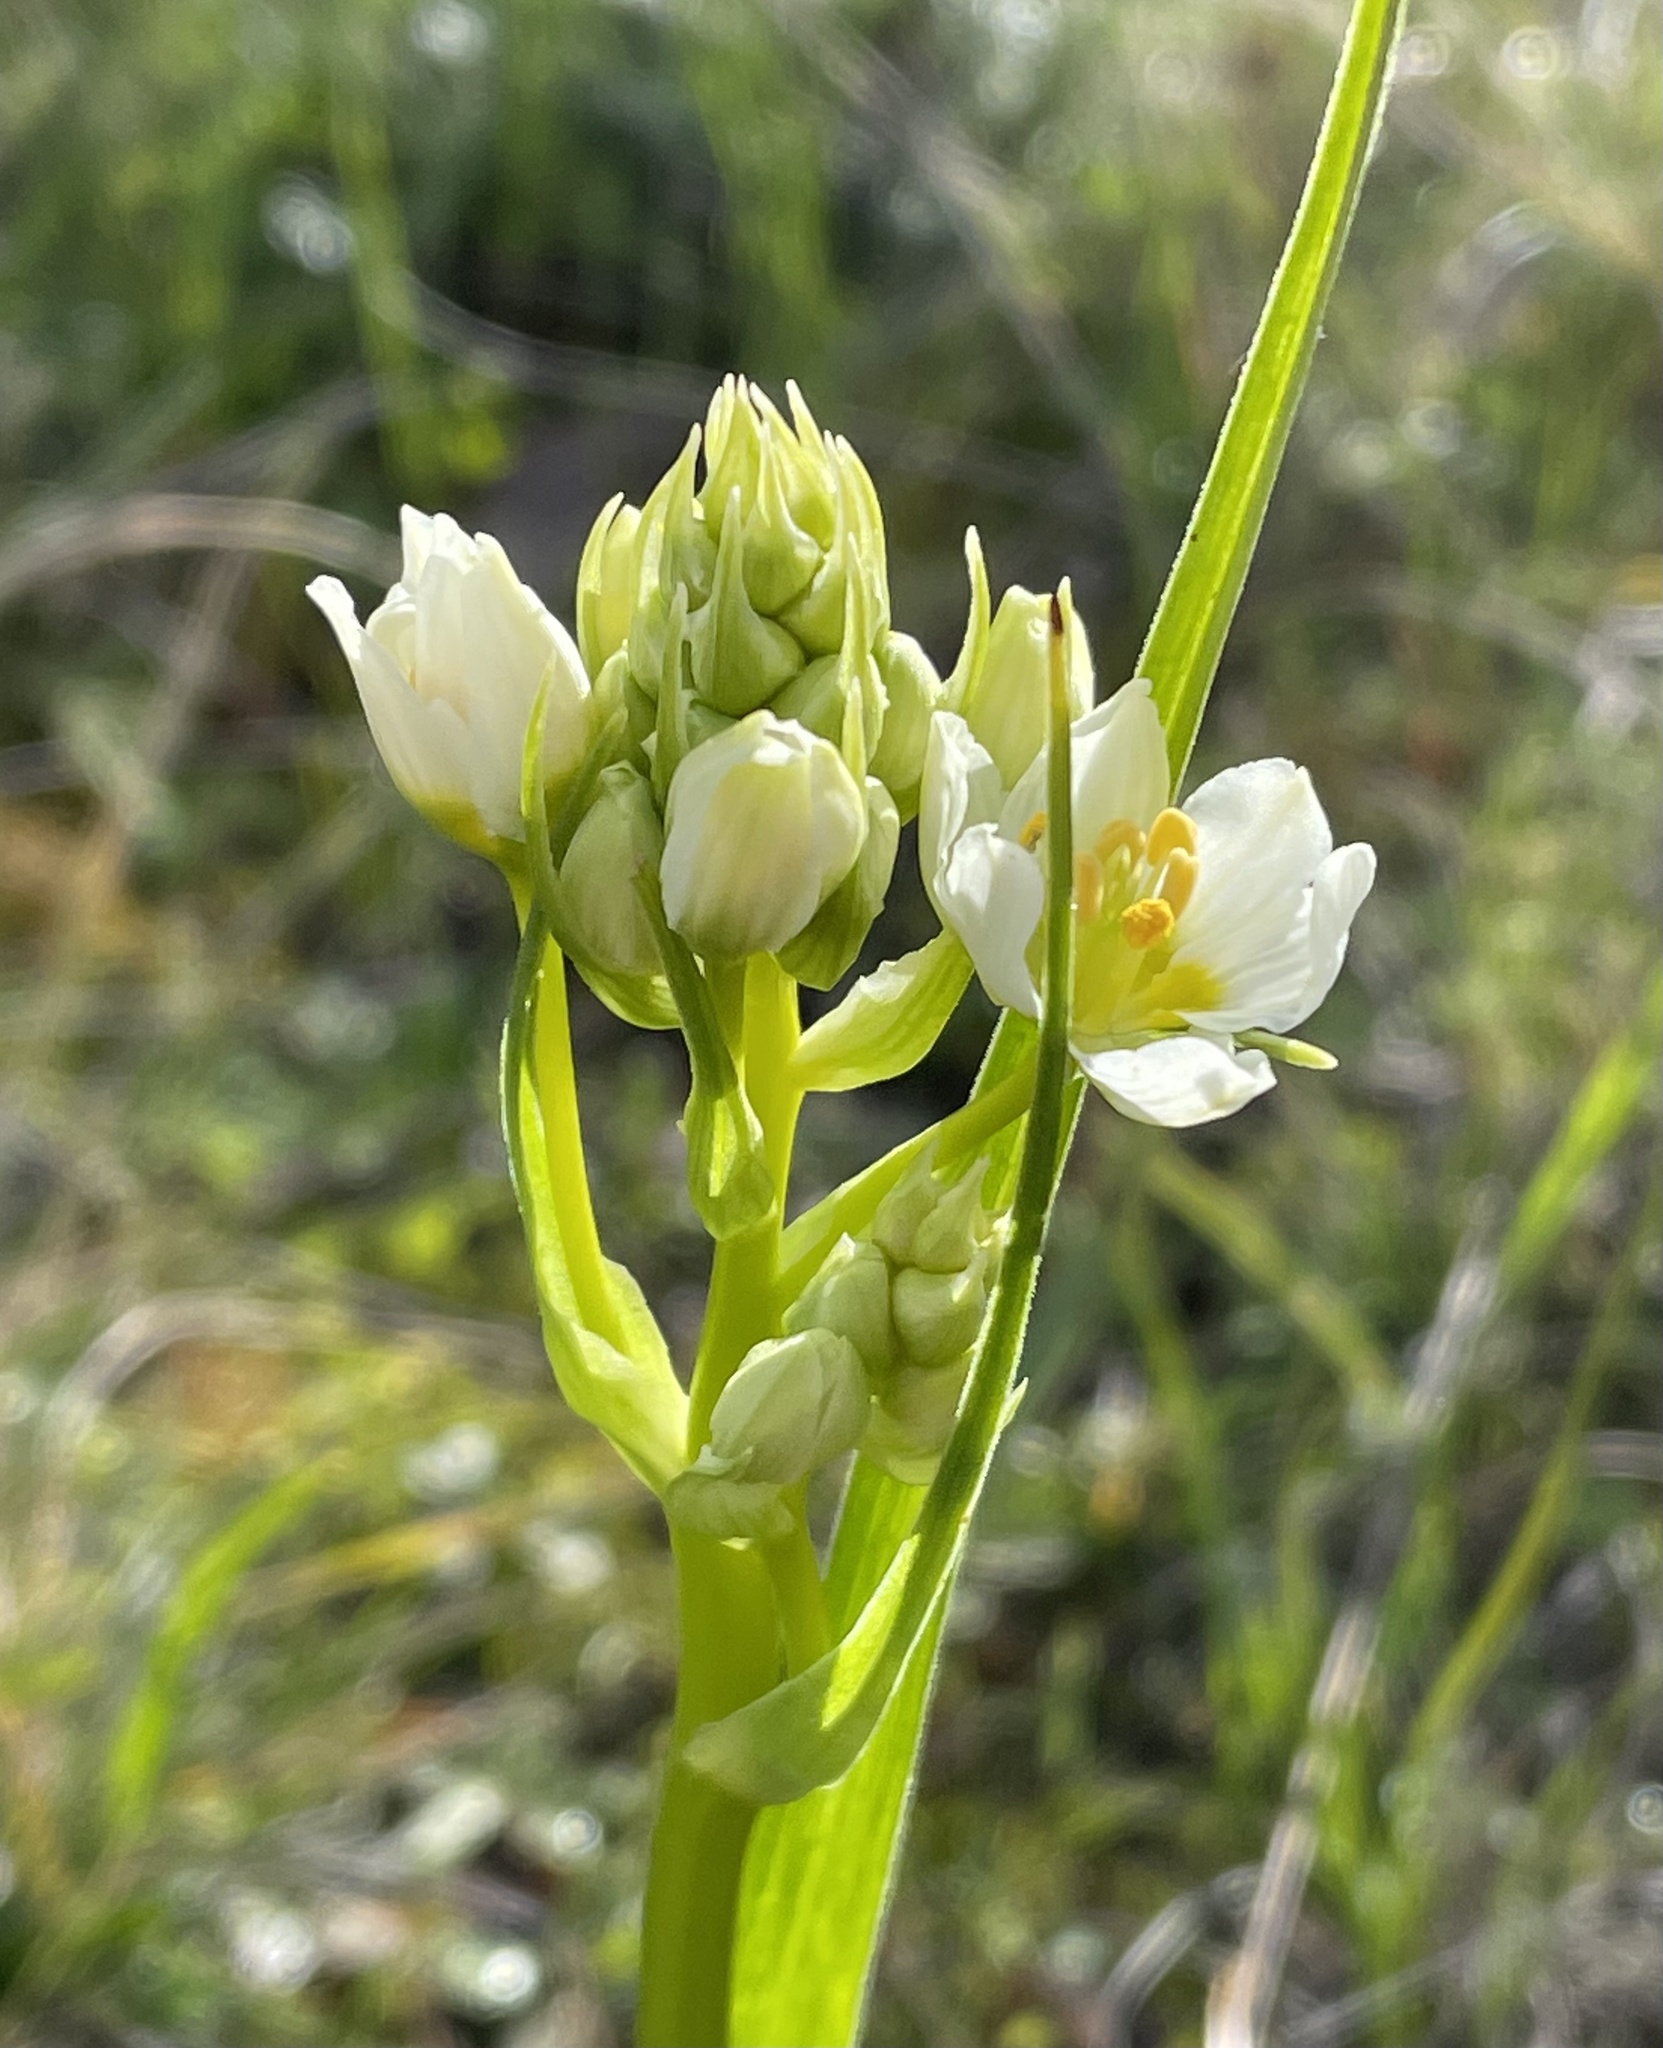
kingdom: Plantae
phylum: Tracheophyta
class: Liliopsida
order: Liliales
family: Melanthiaceae
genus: Toxicoscordion
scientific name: Toxicoscordion fremontii
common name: Fremont's death camas
